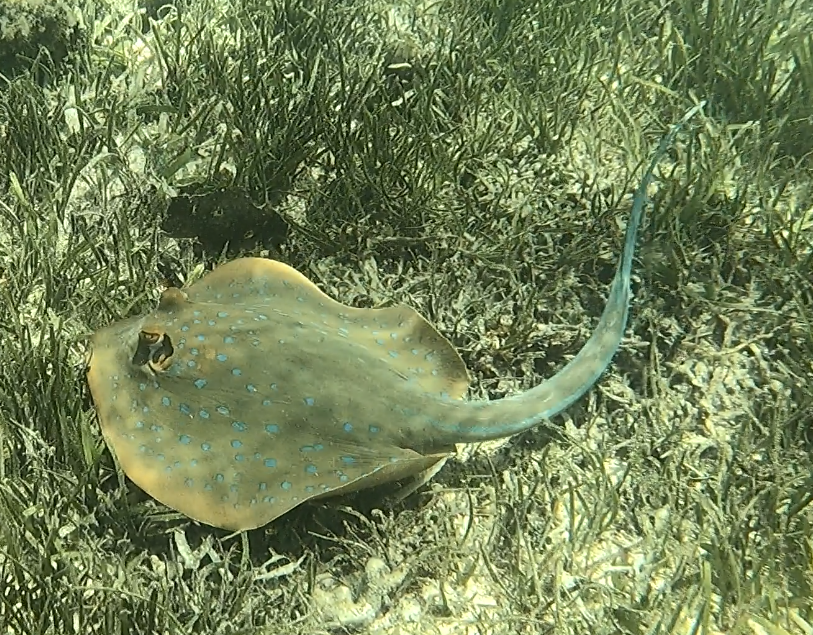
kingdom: Animalia
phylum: Chordata
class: Elasmobranchii
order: Myliobatiformes
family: Dasyatidae
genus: Taeniura
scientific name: Taeniura lymma
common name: Bluespotted ribbontail ray
